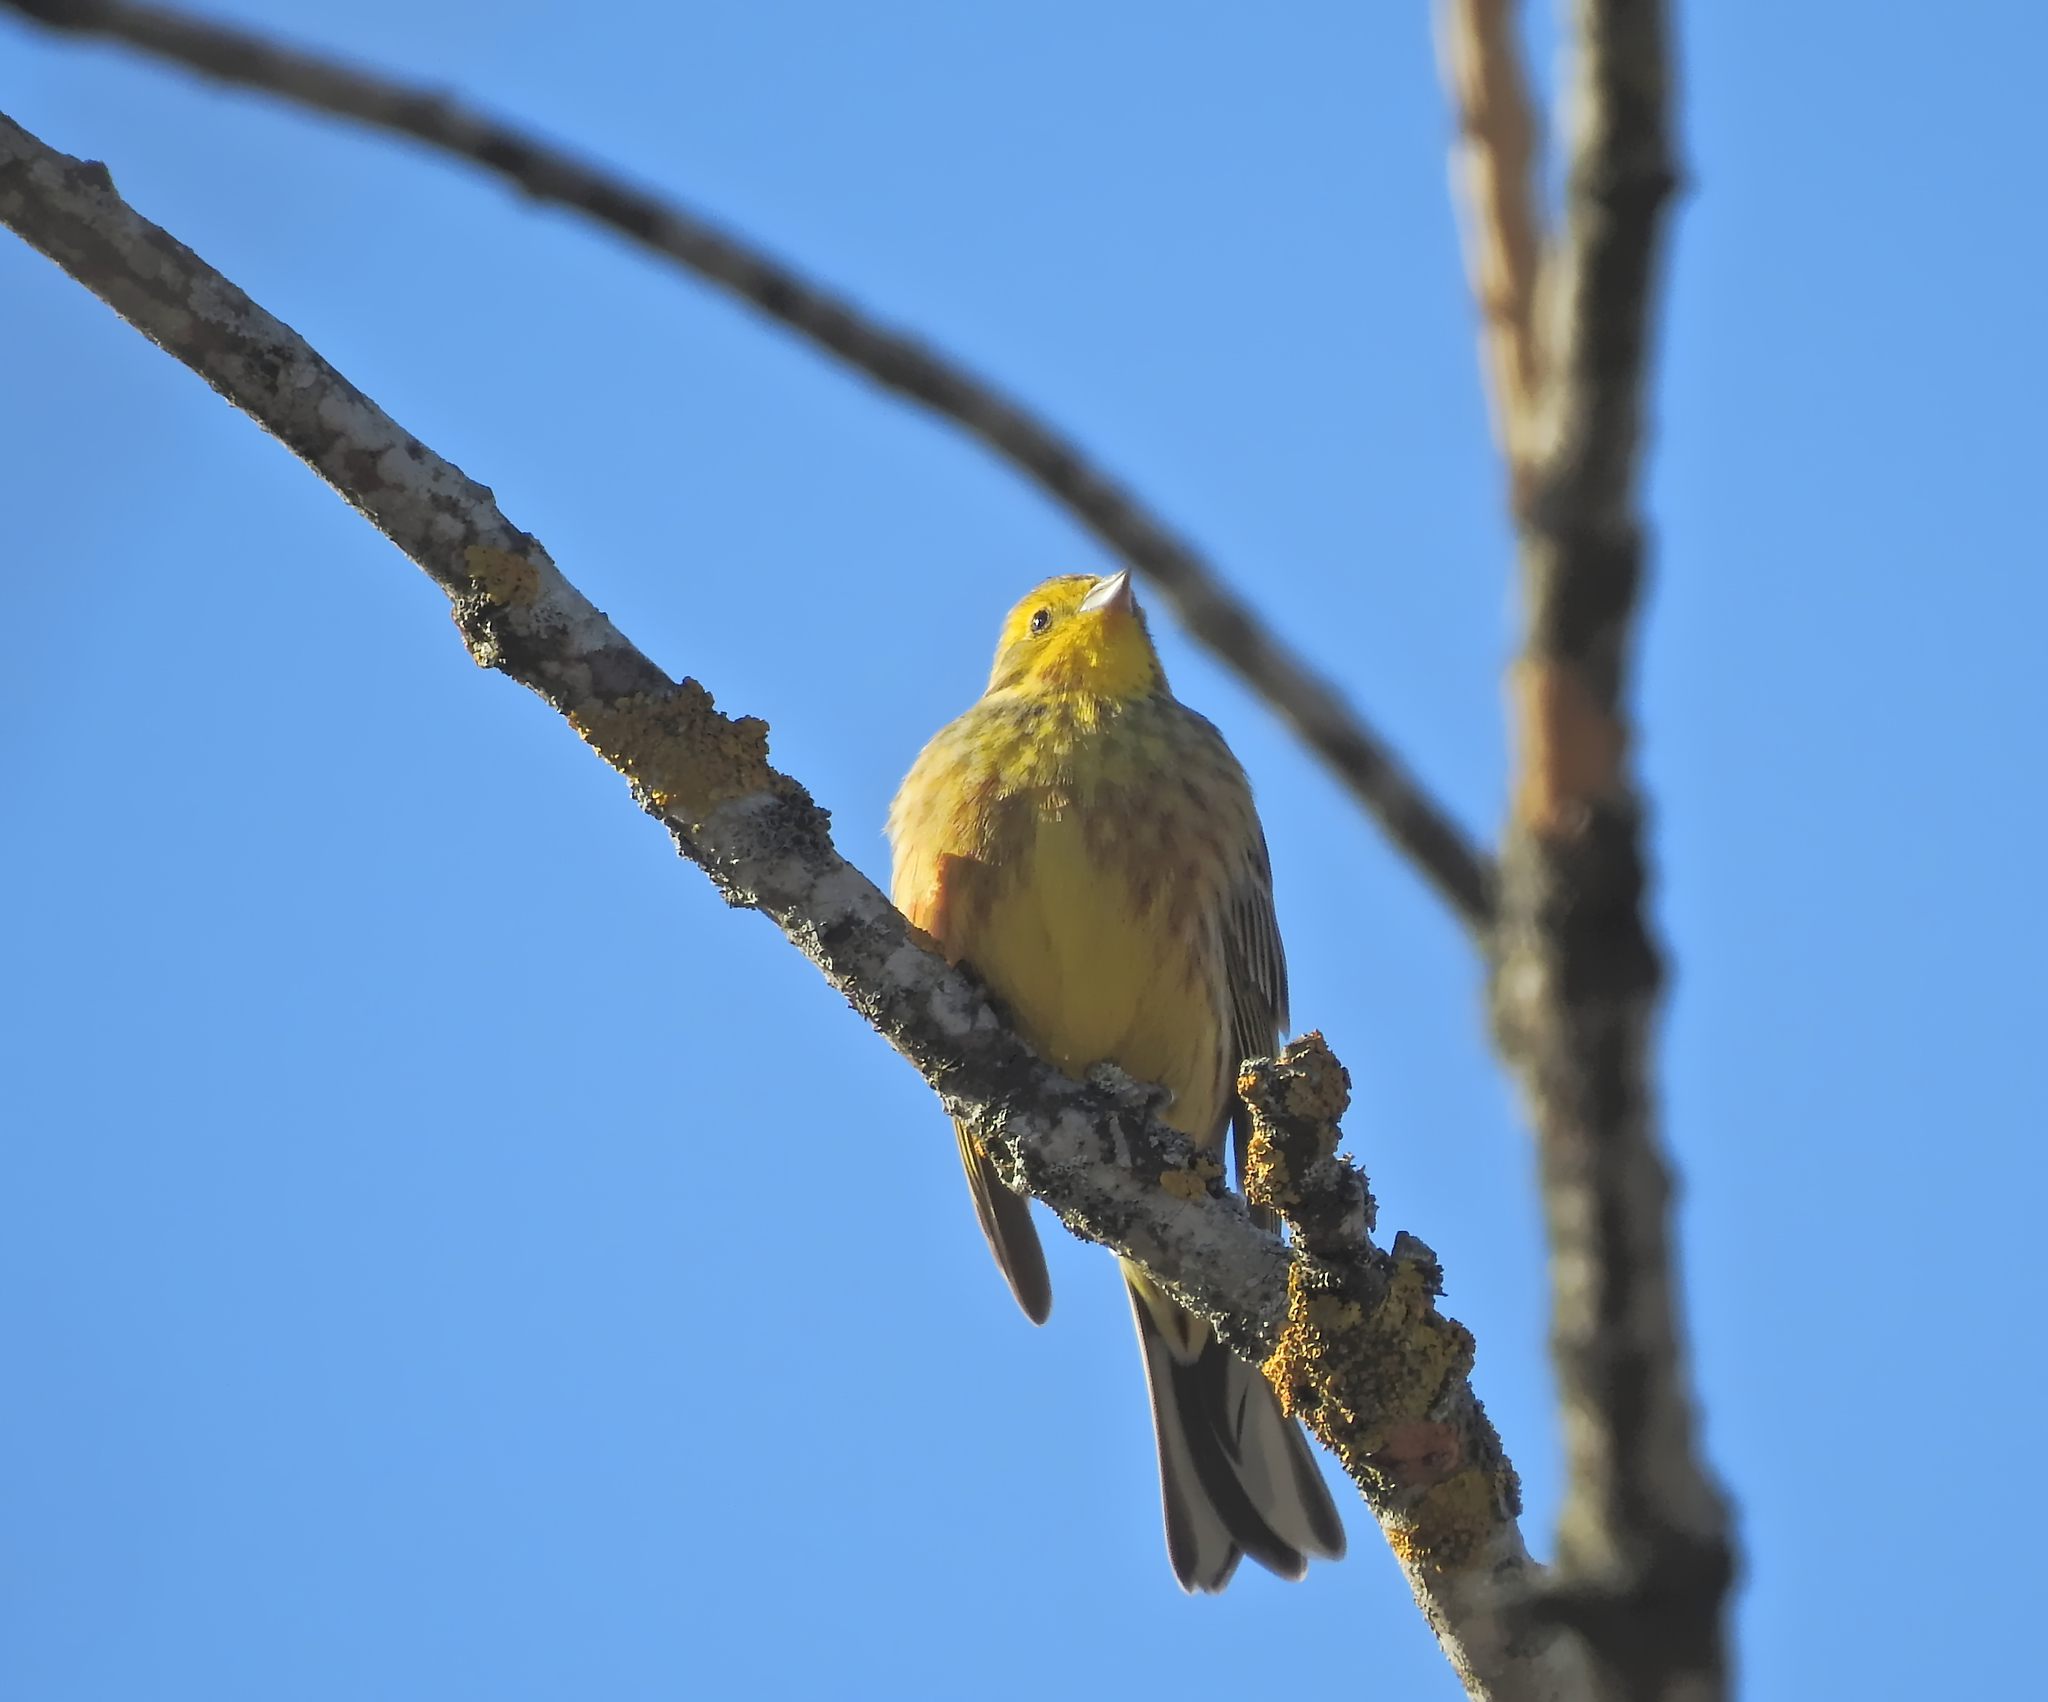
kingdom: Animalia
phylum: Chordata
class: Aves
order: Passeriformes
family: Emberizidae
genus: Emberiza
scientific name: Emberiza citrinella
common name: Yellowhammer
